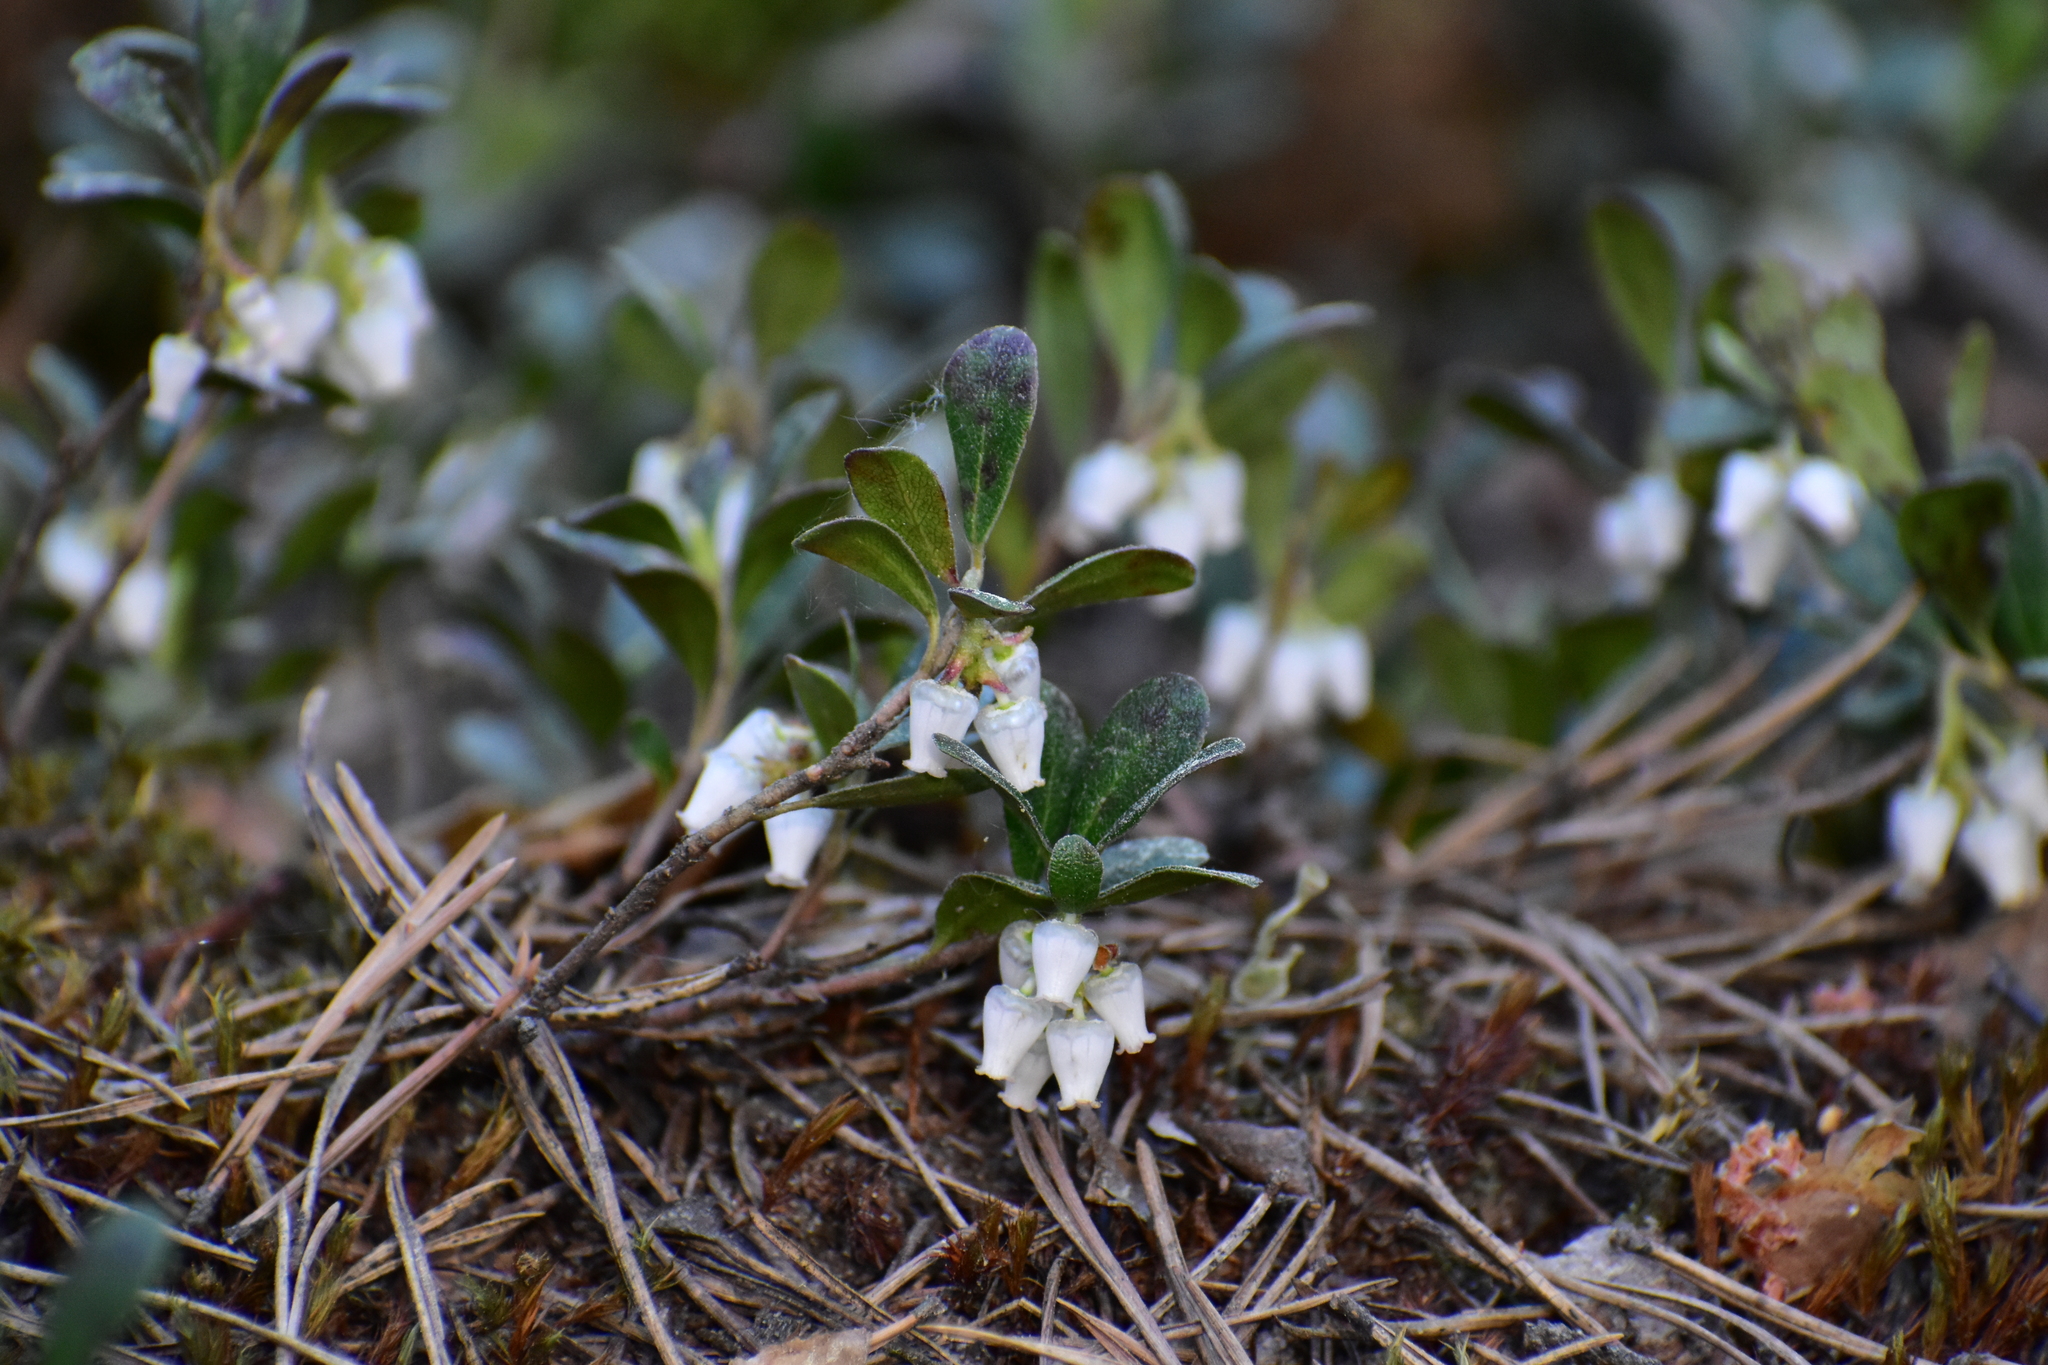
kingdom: Plantae
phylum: Tracheophyta
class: Magnoliopsida
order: Ericales
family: Ericaceae
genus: Arctostaphylos
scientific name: Arctostaphylos uva-ursi
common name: Bearberry
